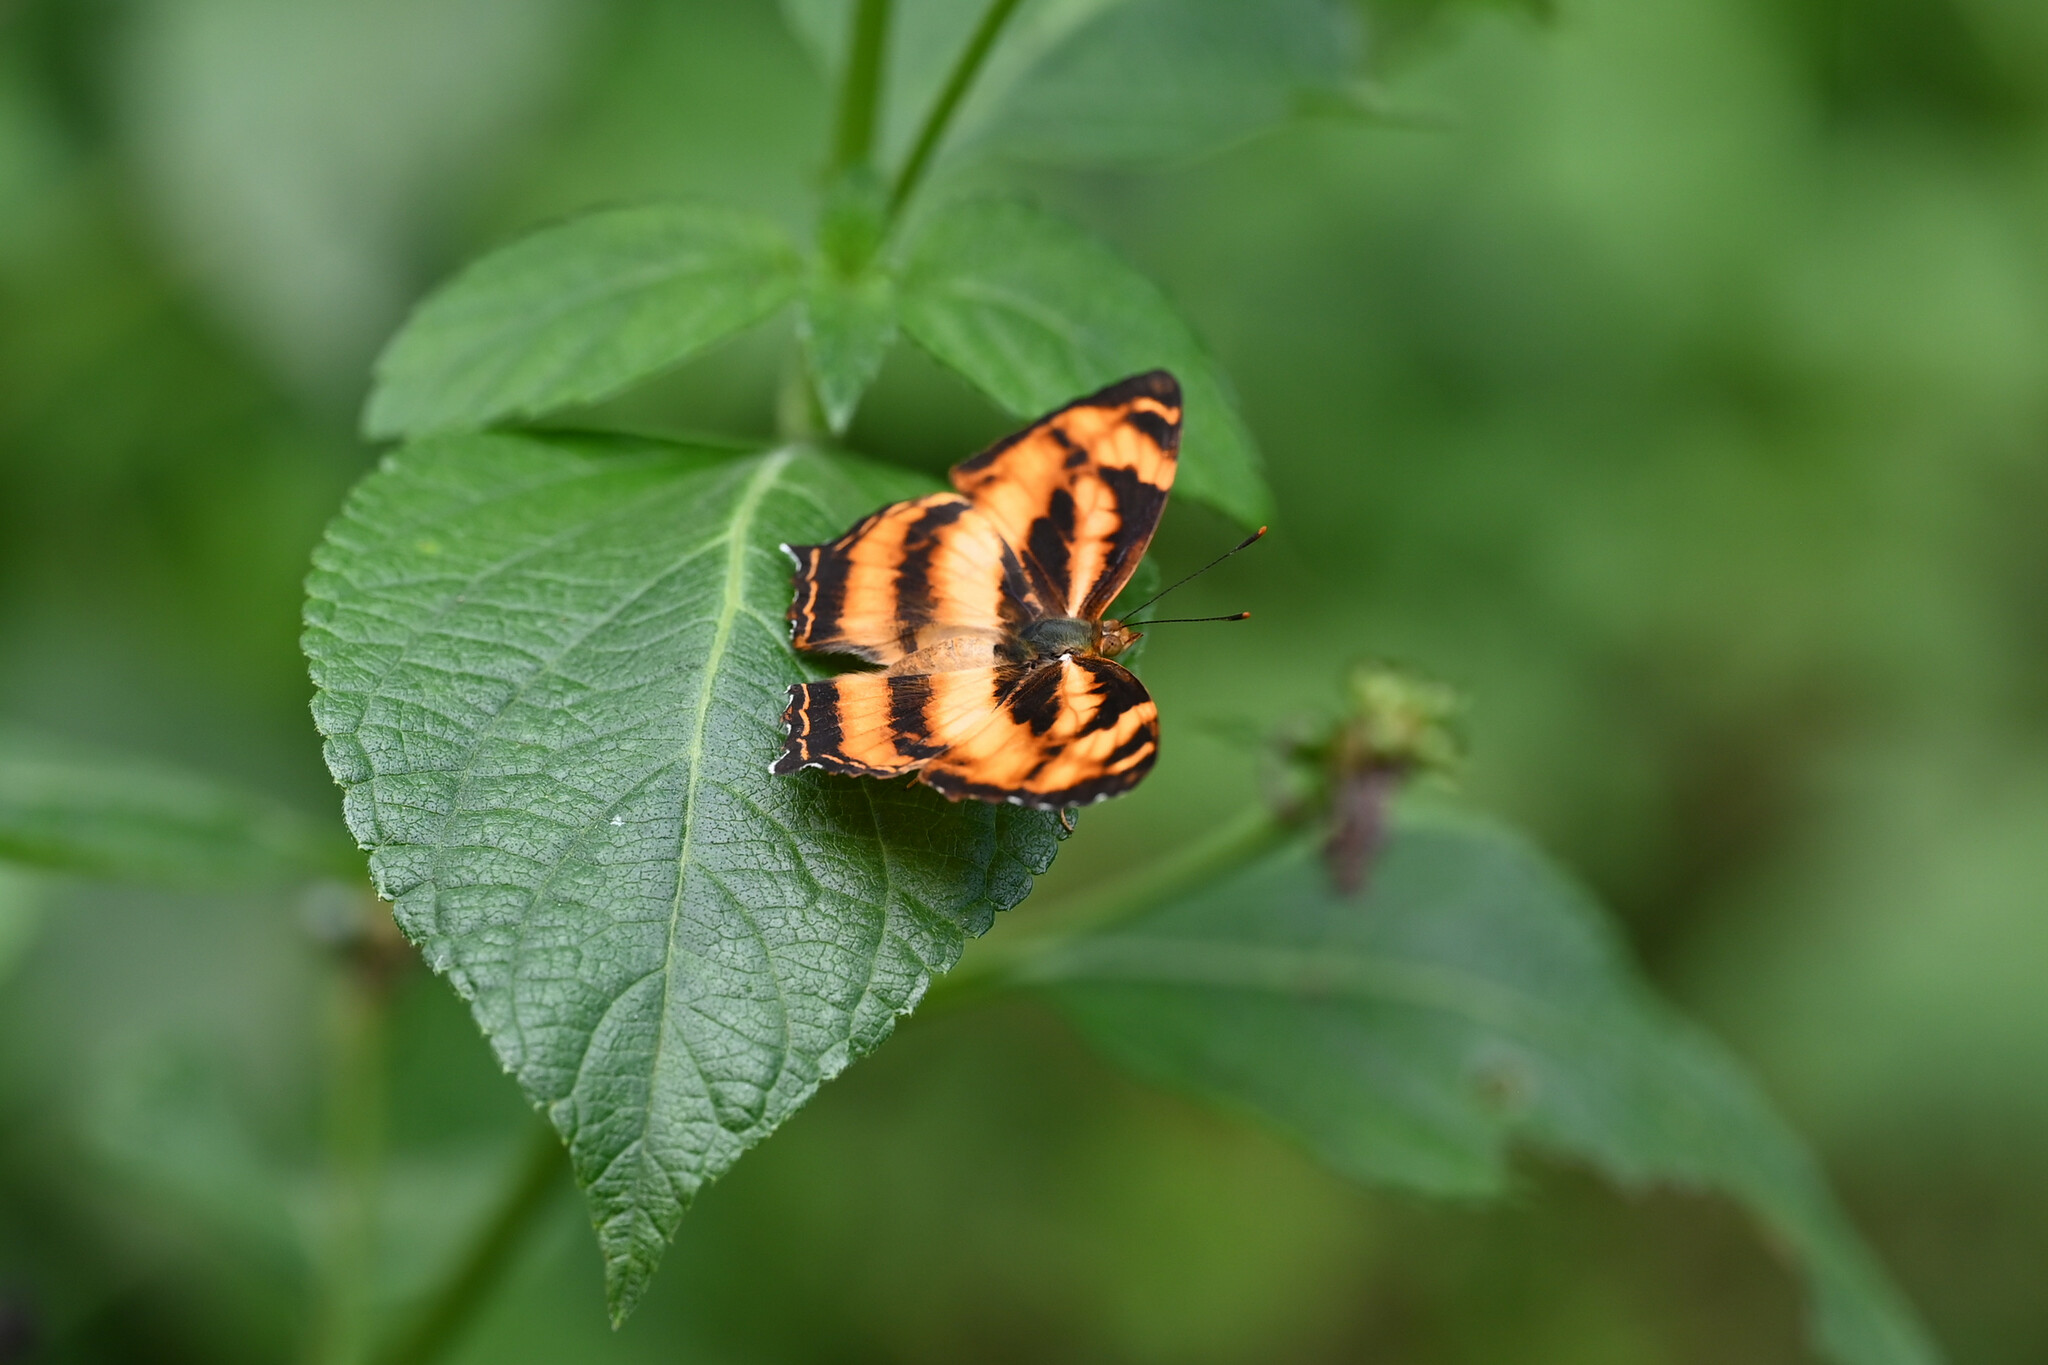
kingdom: Animalia
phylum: Arthropoda
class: Insecta
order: Lepidoptera
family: Nymphalidae
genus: Symbrenthia
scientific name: Symbrenthia hypselis
